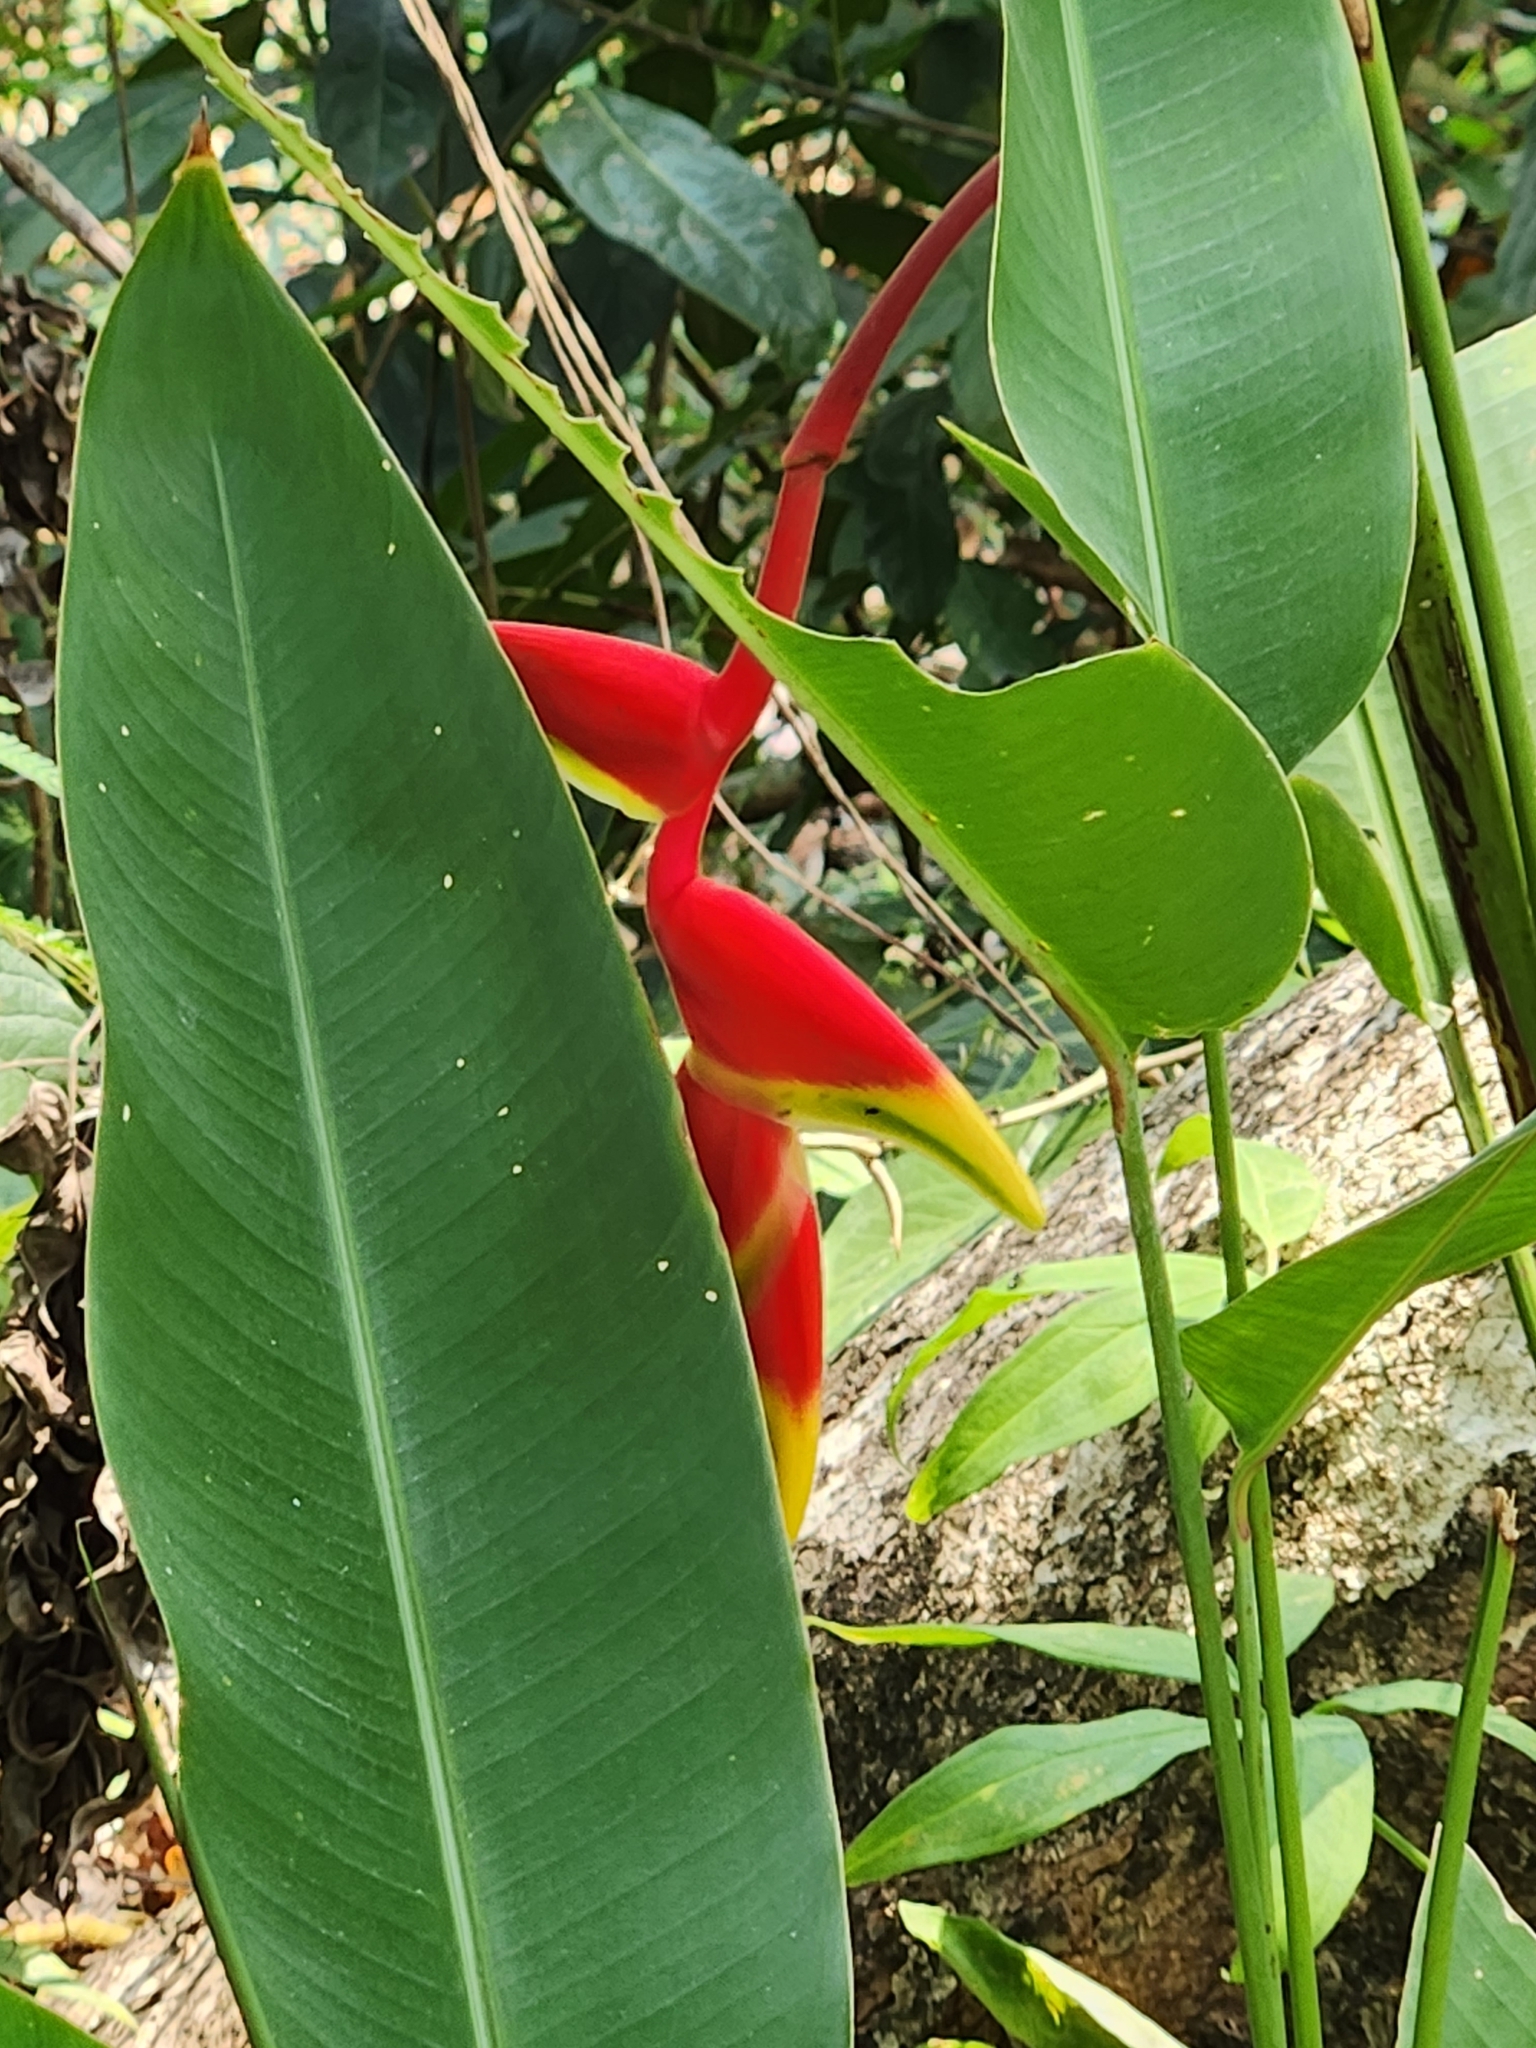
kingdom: Plantae
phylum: Tracheophyta
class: Liliopsida
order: Zingiberales
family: Heliconiaceae
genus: Heliconia
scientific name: Heliconia rostrata
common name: False bird of paradise
